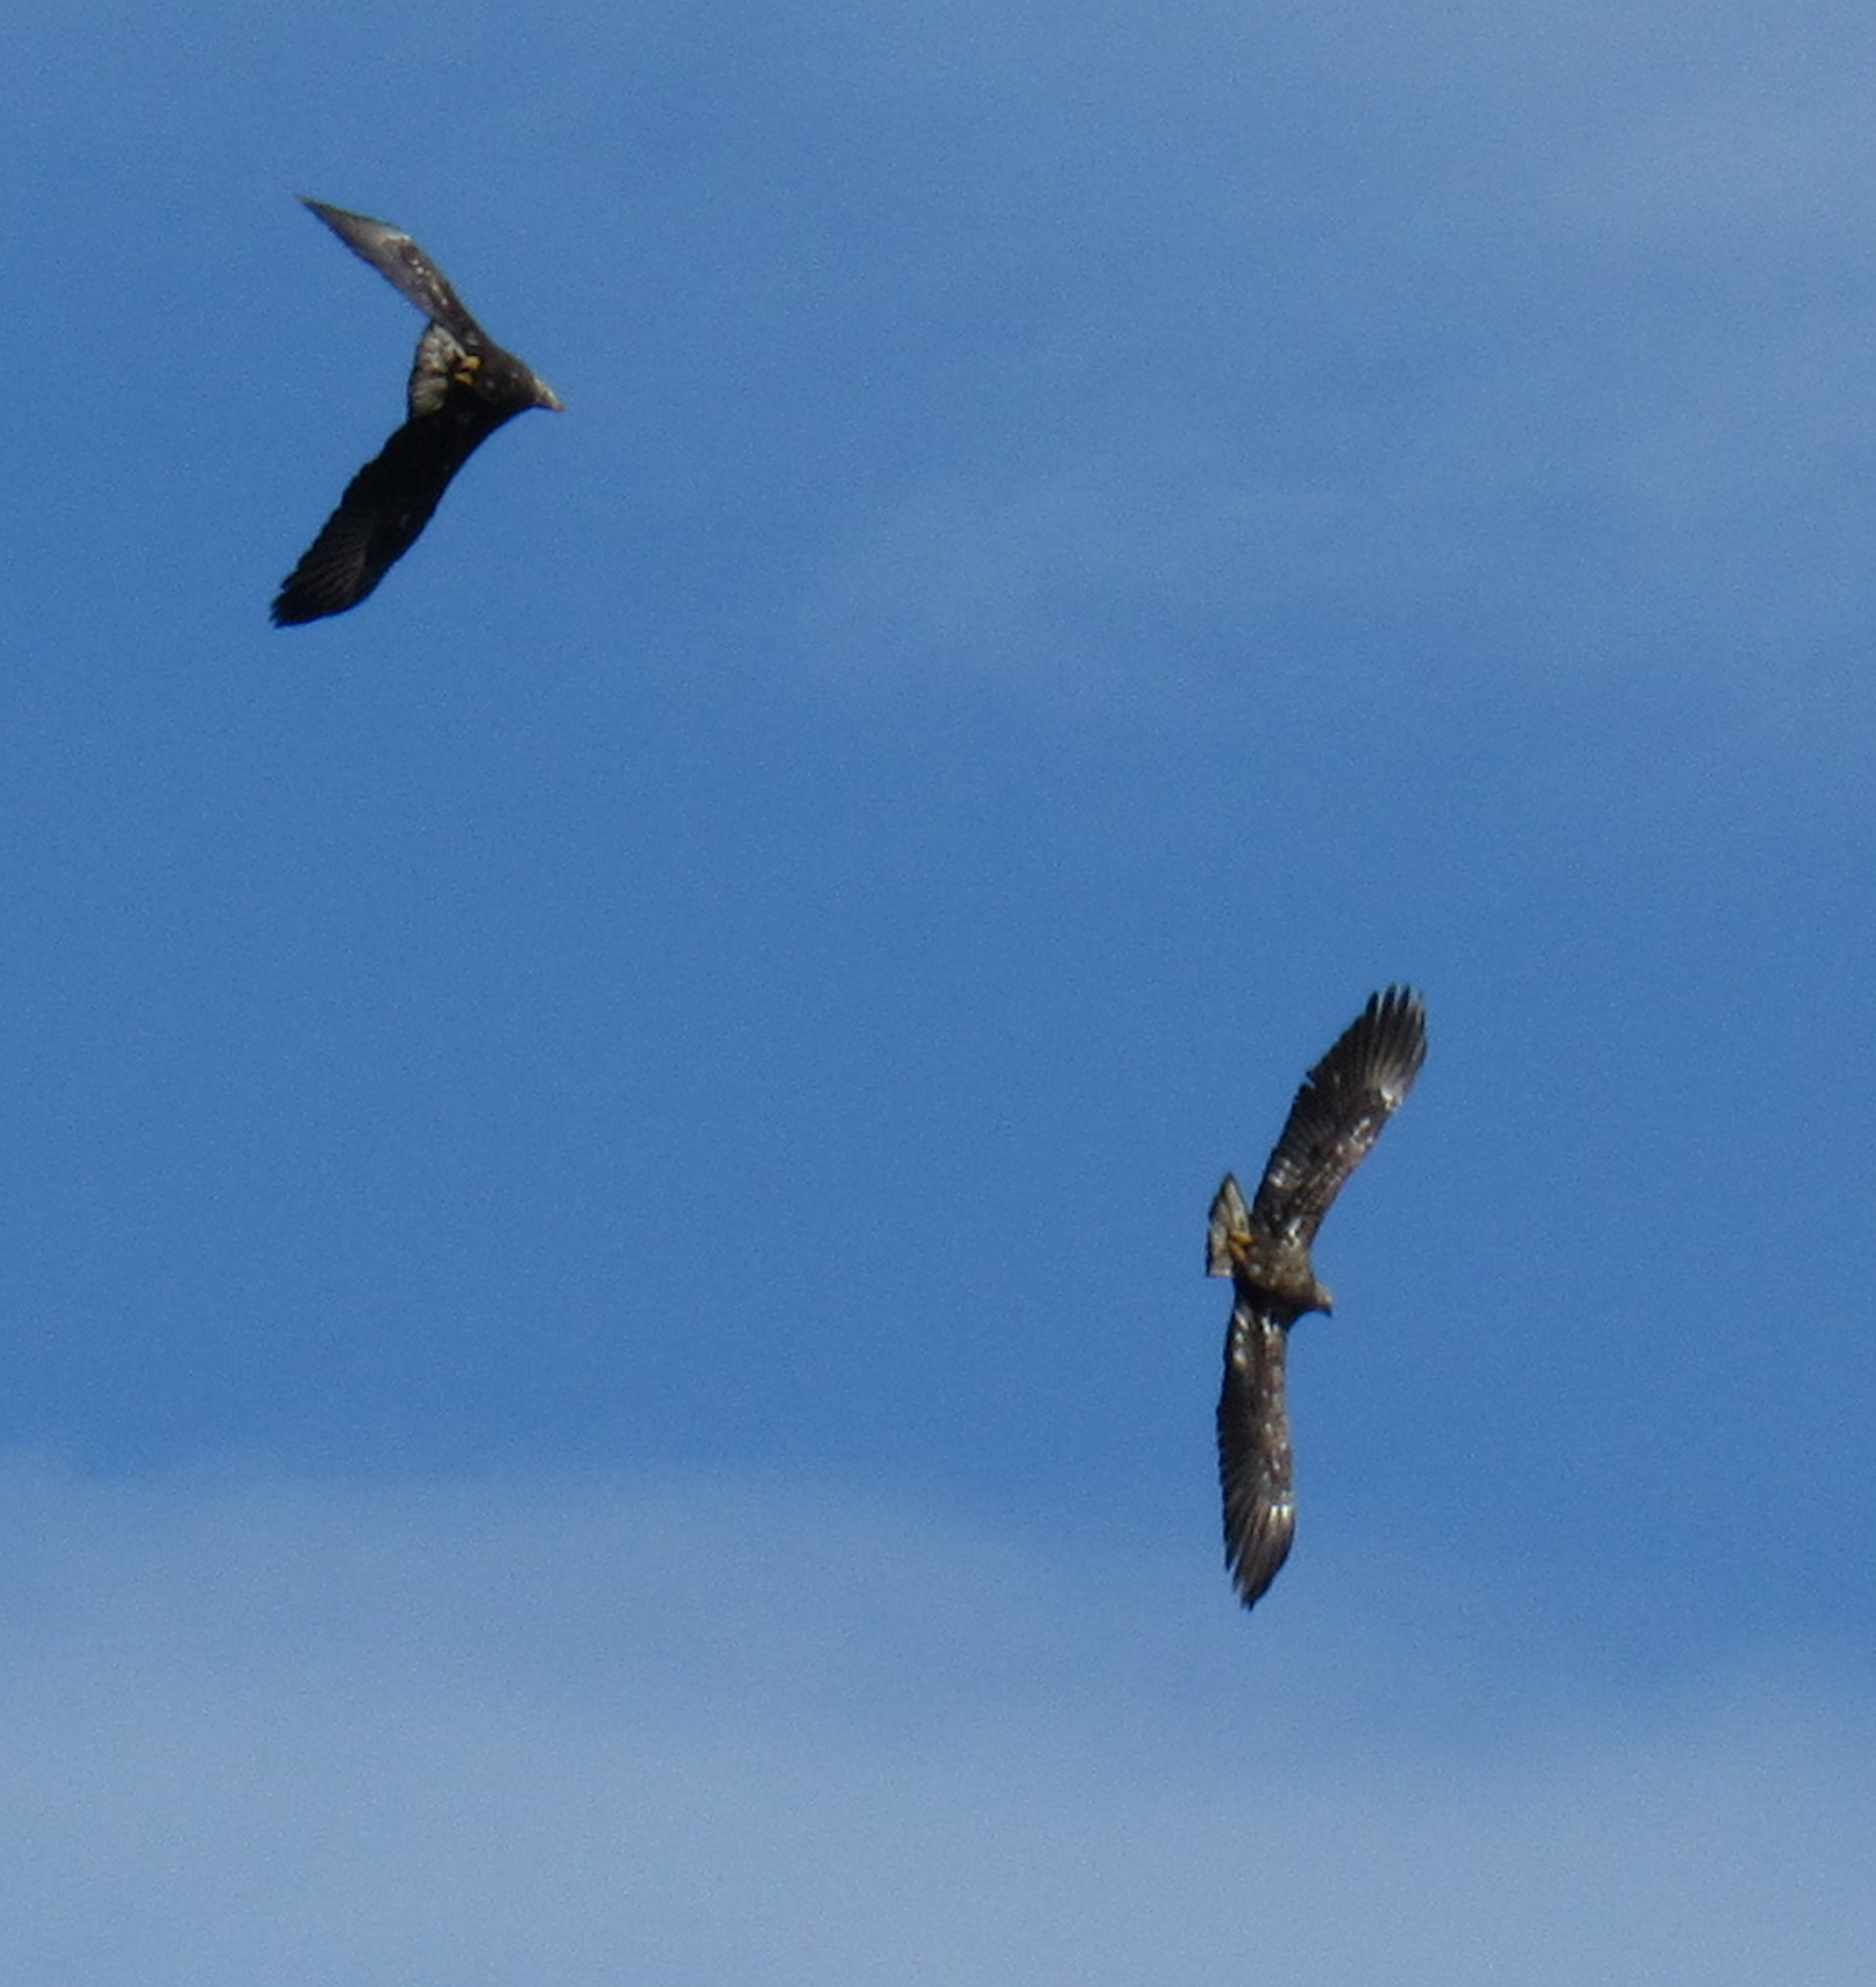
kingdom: Animalia
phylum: Chordata
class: Aves
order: Accipitriformes
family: Accipitridae
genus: Haliaeetus
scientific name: Haliaeetus leucocephalus
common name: Bald eagle
